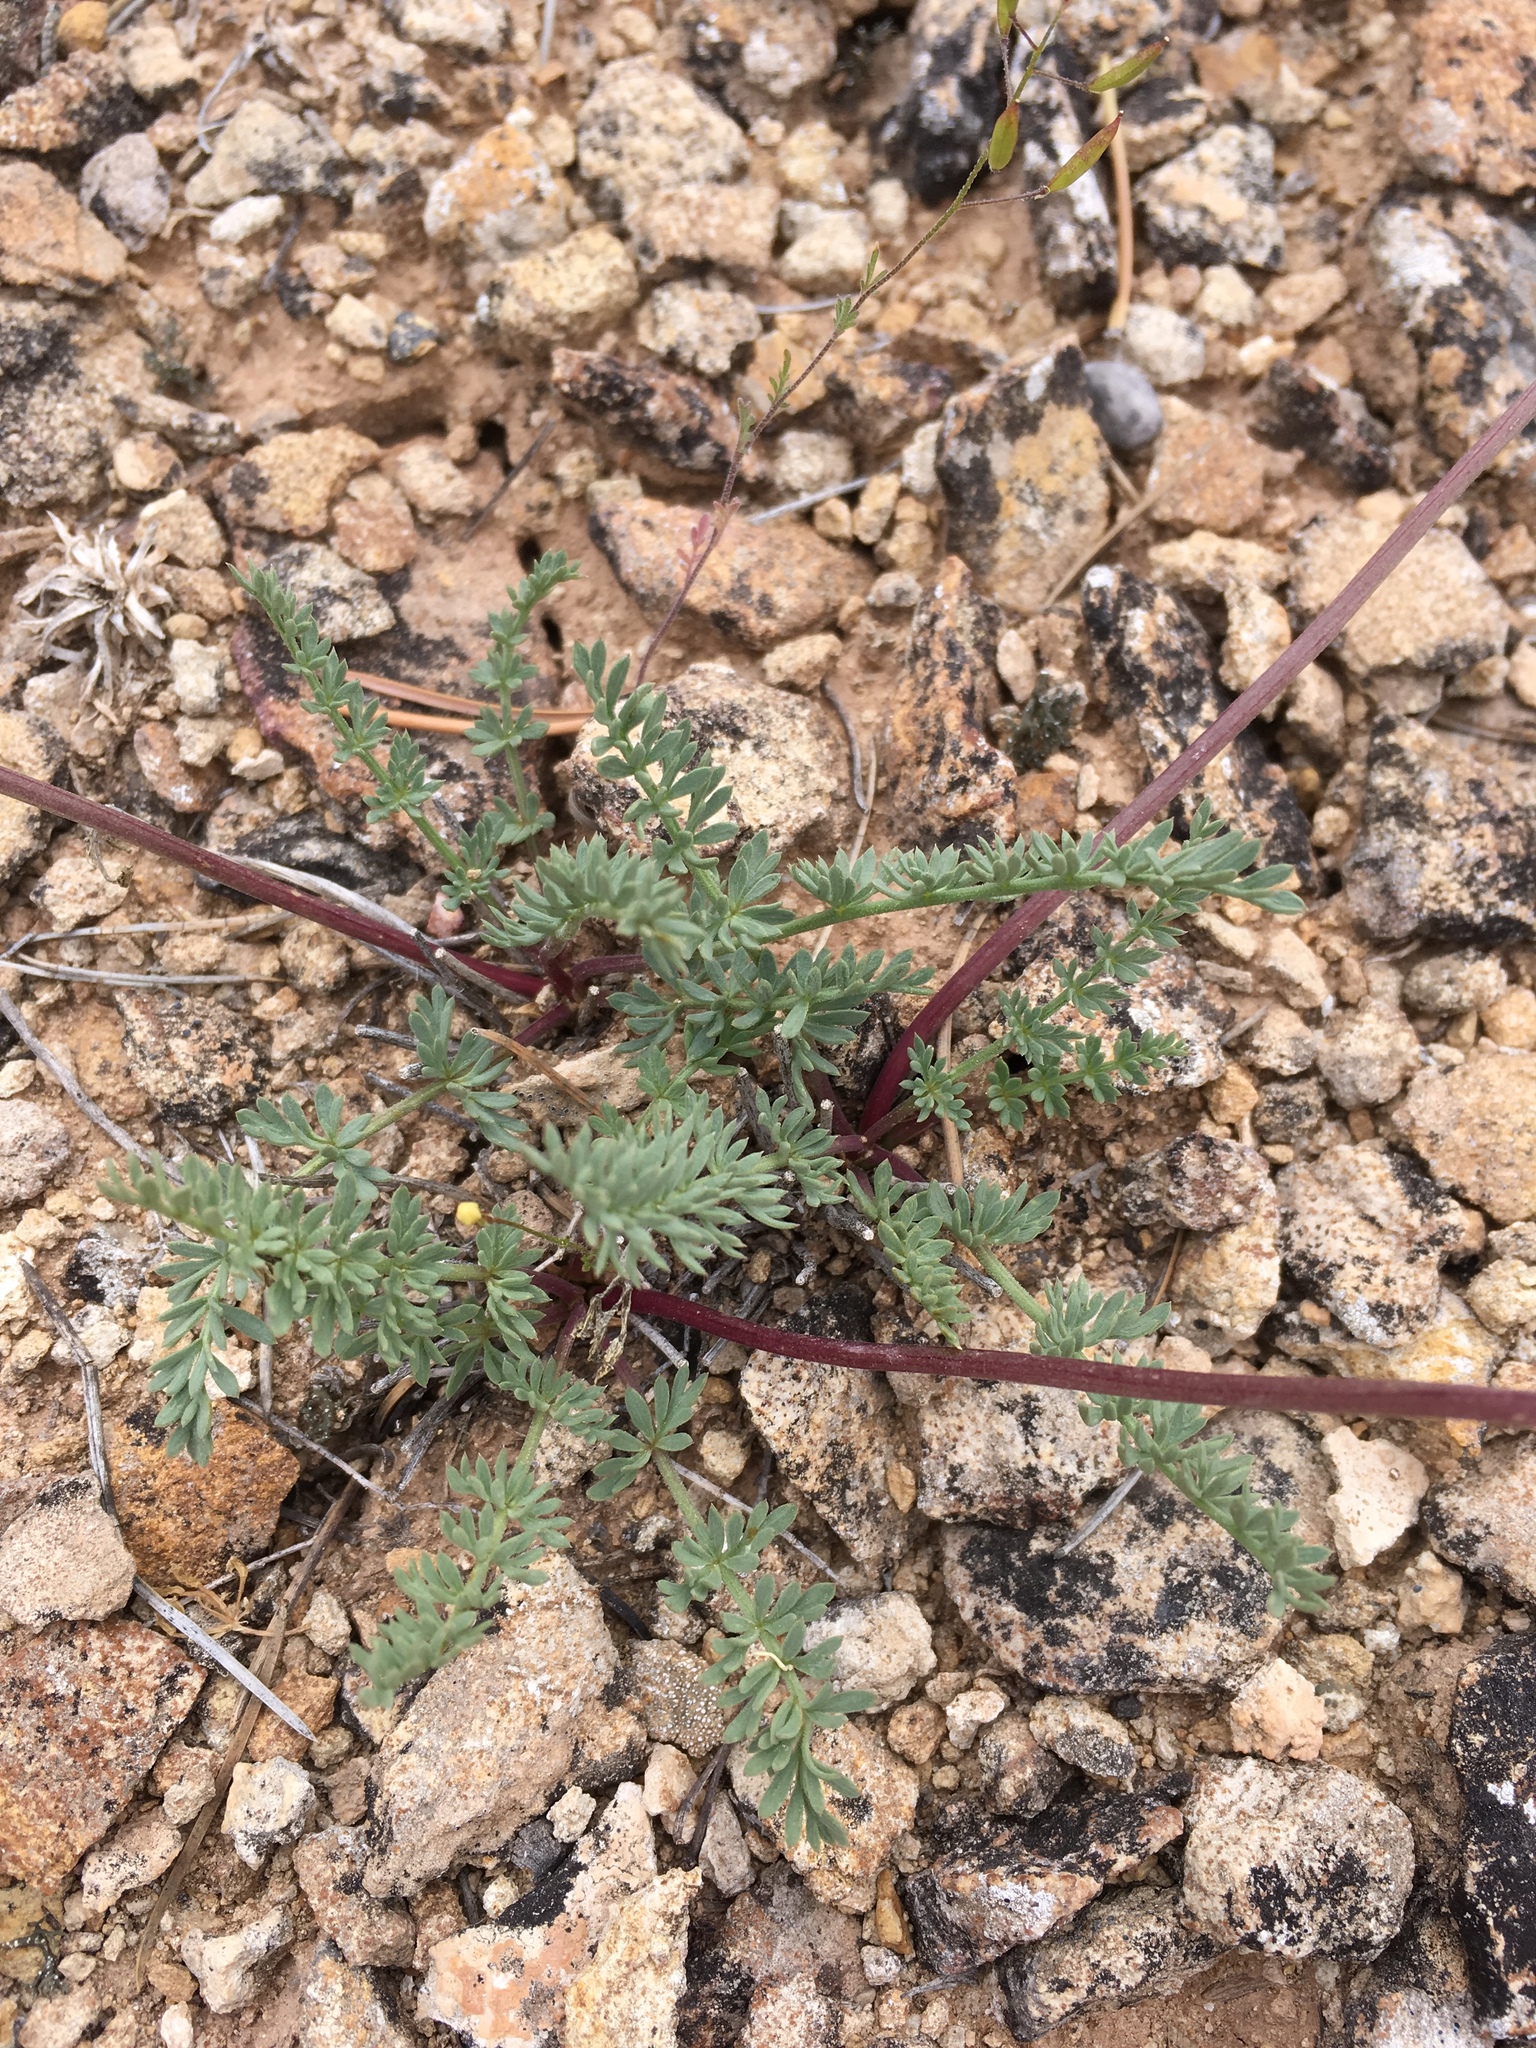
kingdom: Plantae
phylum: Tracheophyta
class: Magnoliopsida
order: Apiales
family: Apiaceae
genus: Lomatium
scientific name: Lomatium eastwoodiae
